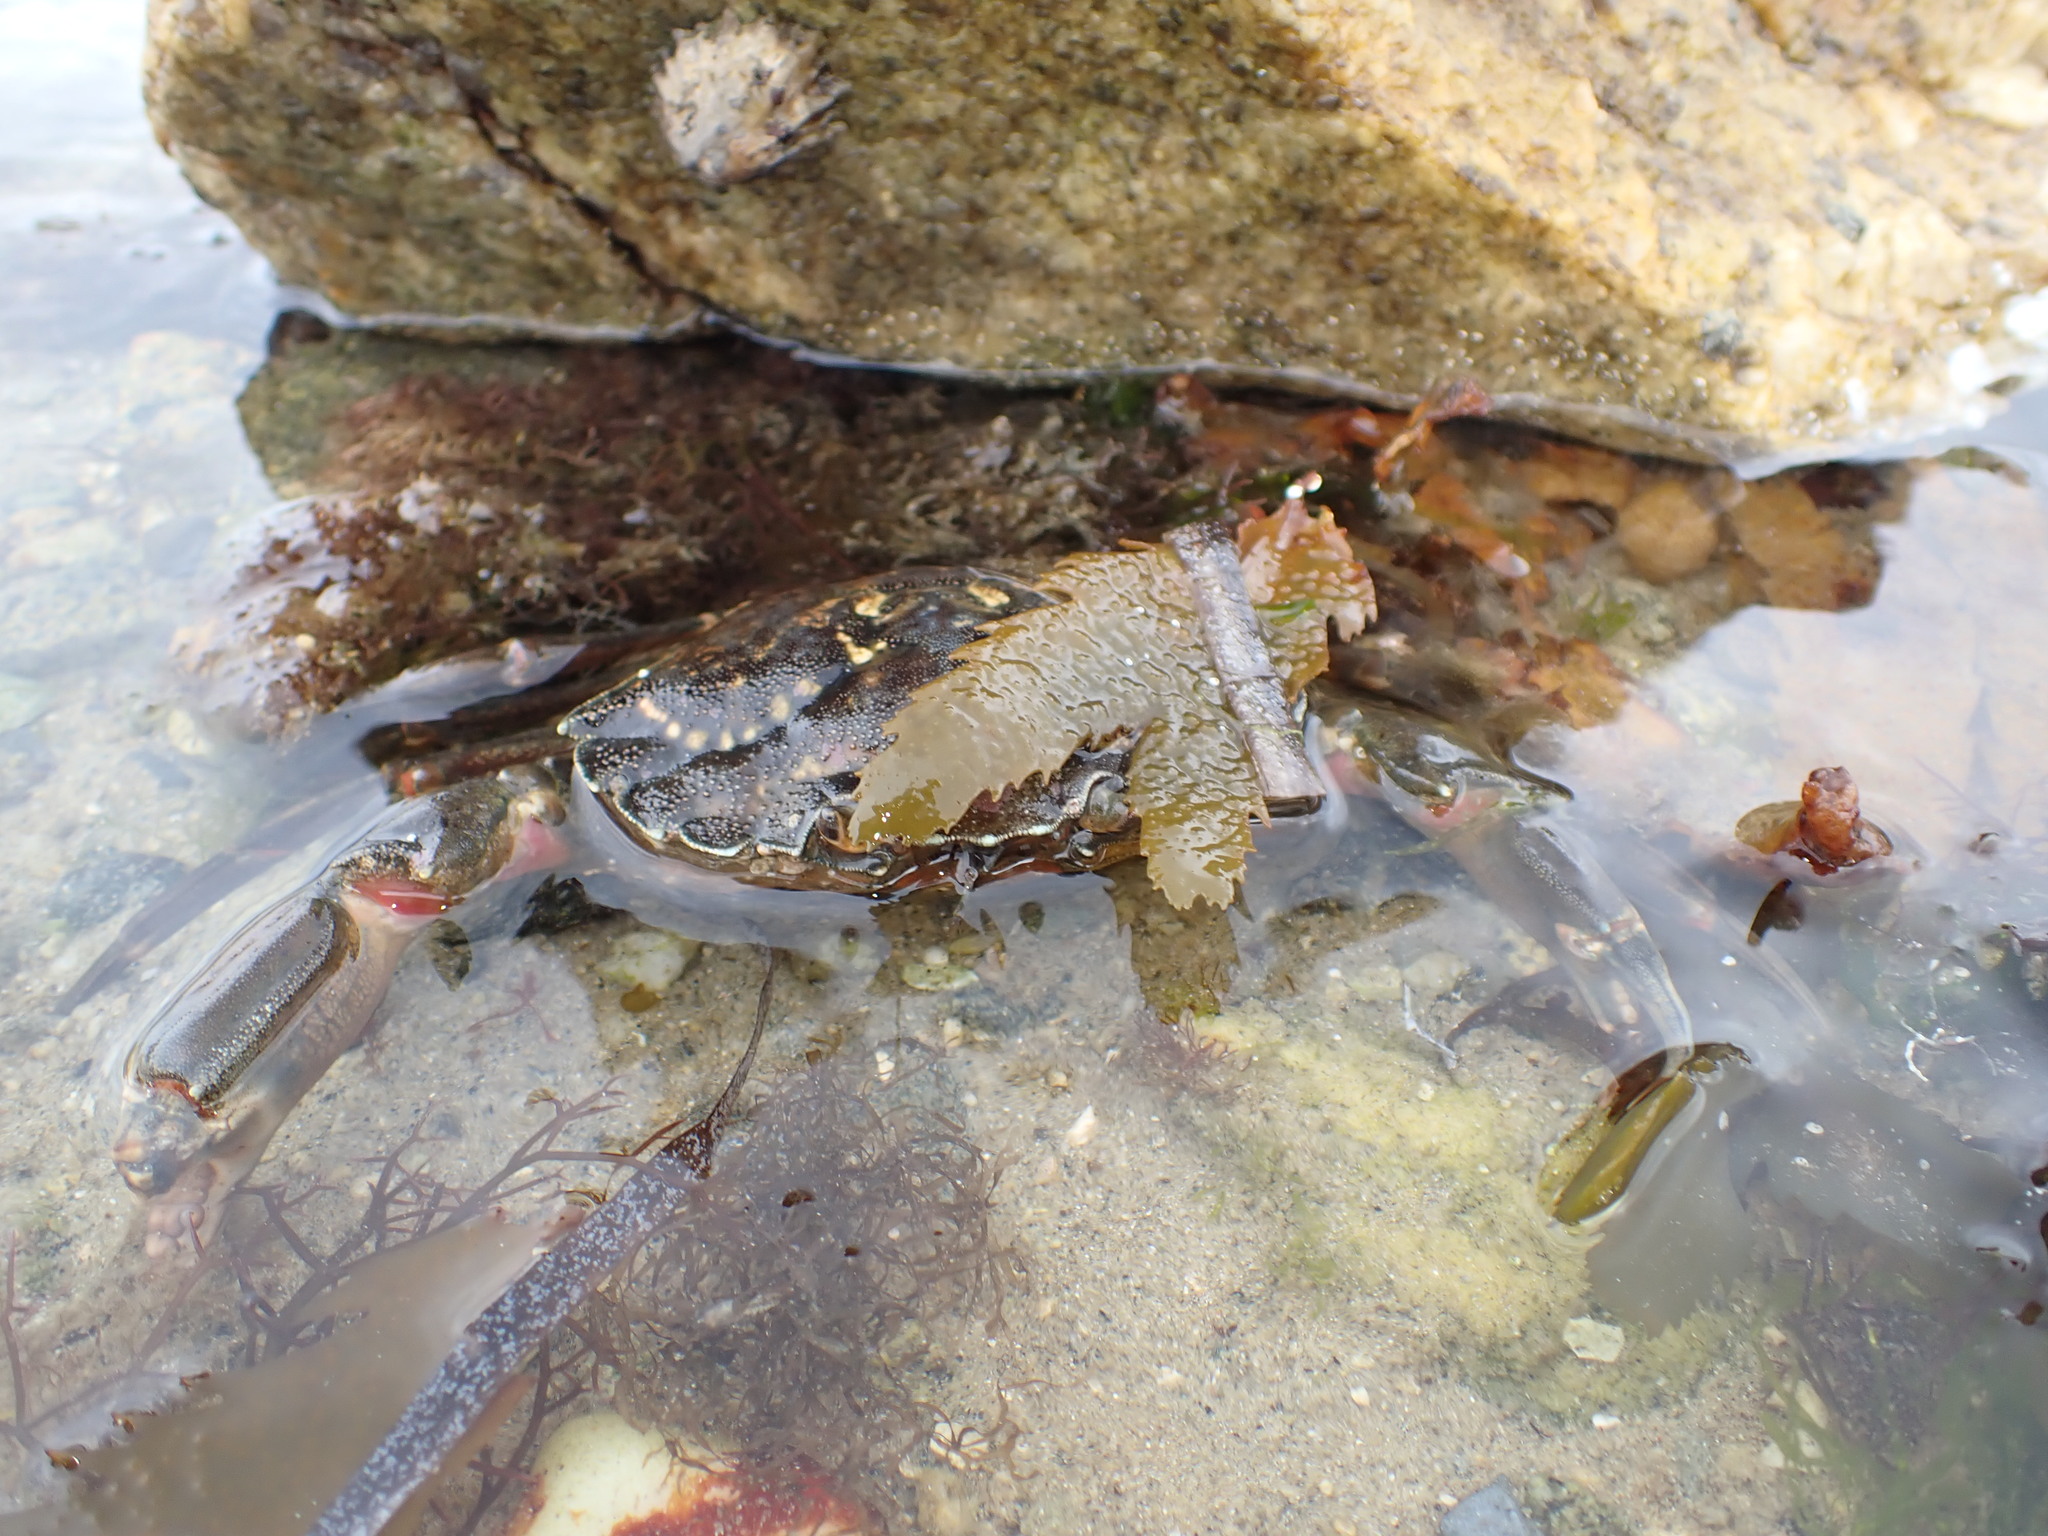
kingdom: Animalia
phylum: Arthropoda
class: Malacostraca
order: Decapoda
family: Carcinidae
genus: Carcinus
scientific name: Carcinus maenas
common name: European green crab
